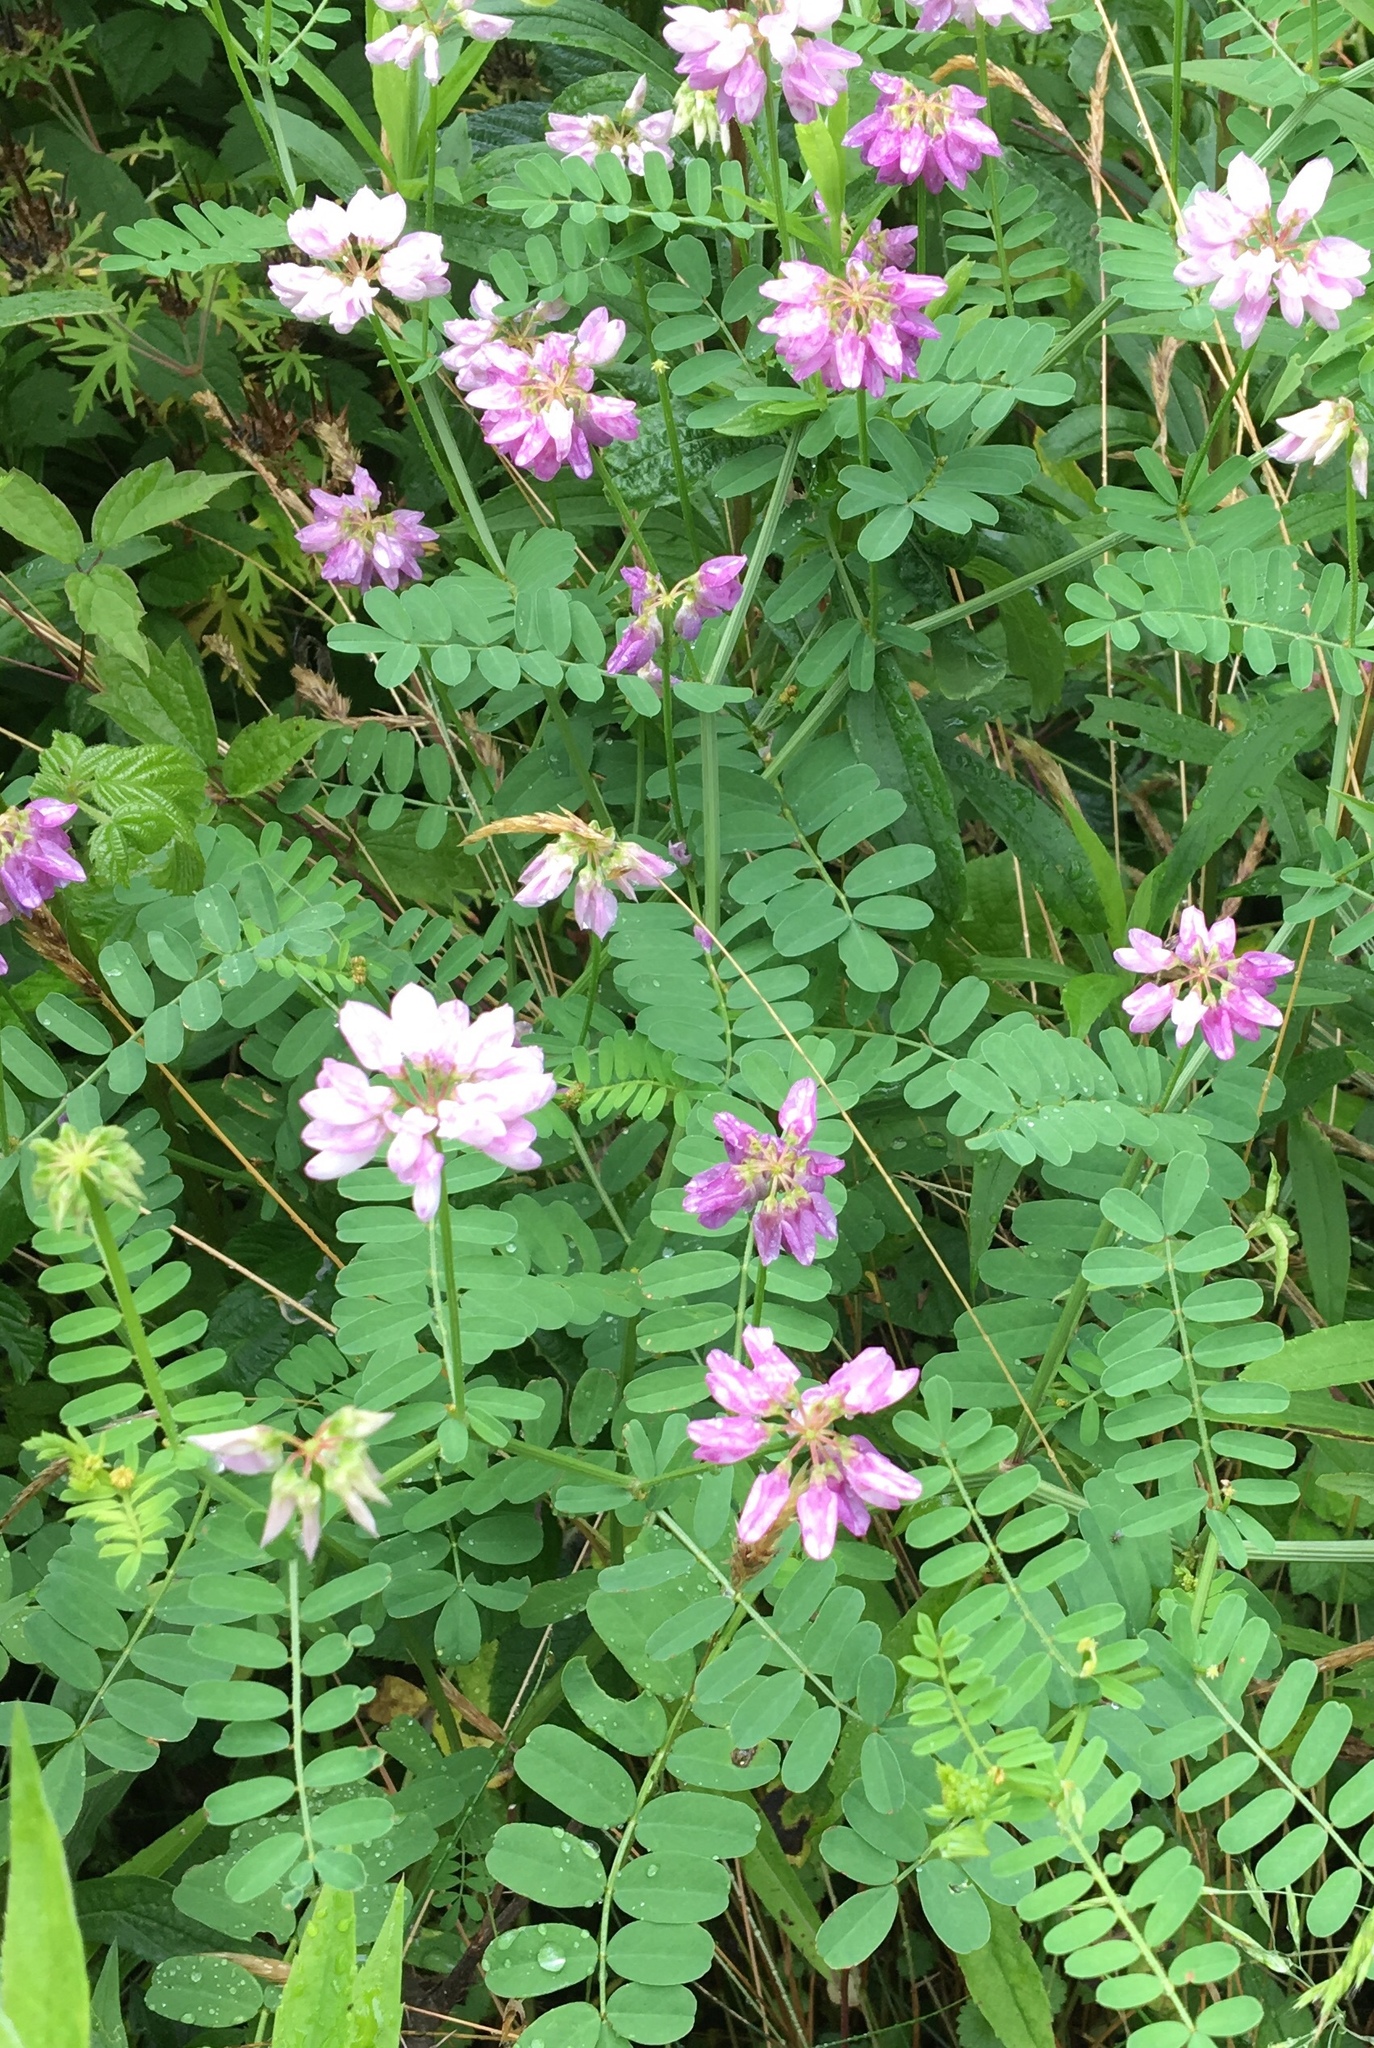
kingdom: Plantae
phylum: Tracheophyta
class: Magnoliopsida
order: Fabales
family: Fabaceae
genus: Coronilla
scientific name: Coronilla varia
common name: Crownvetch
